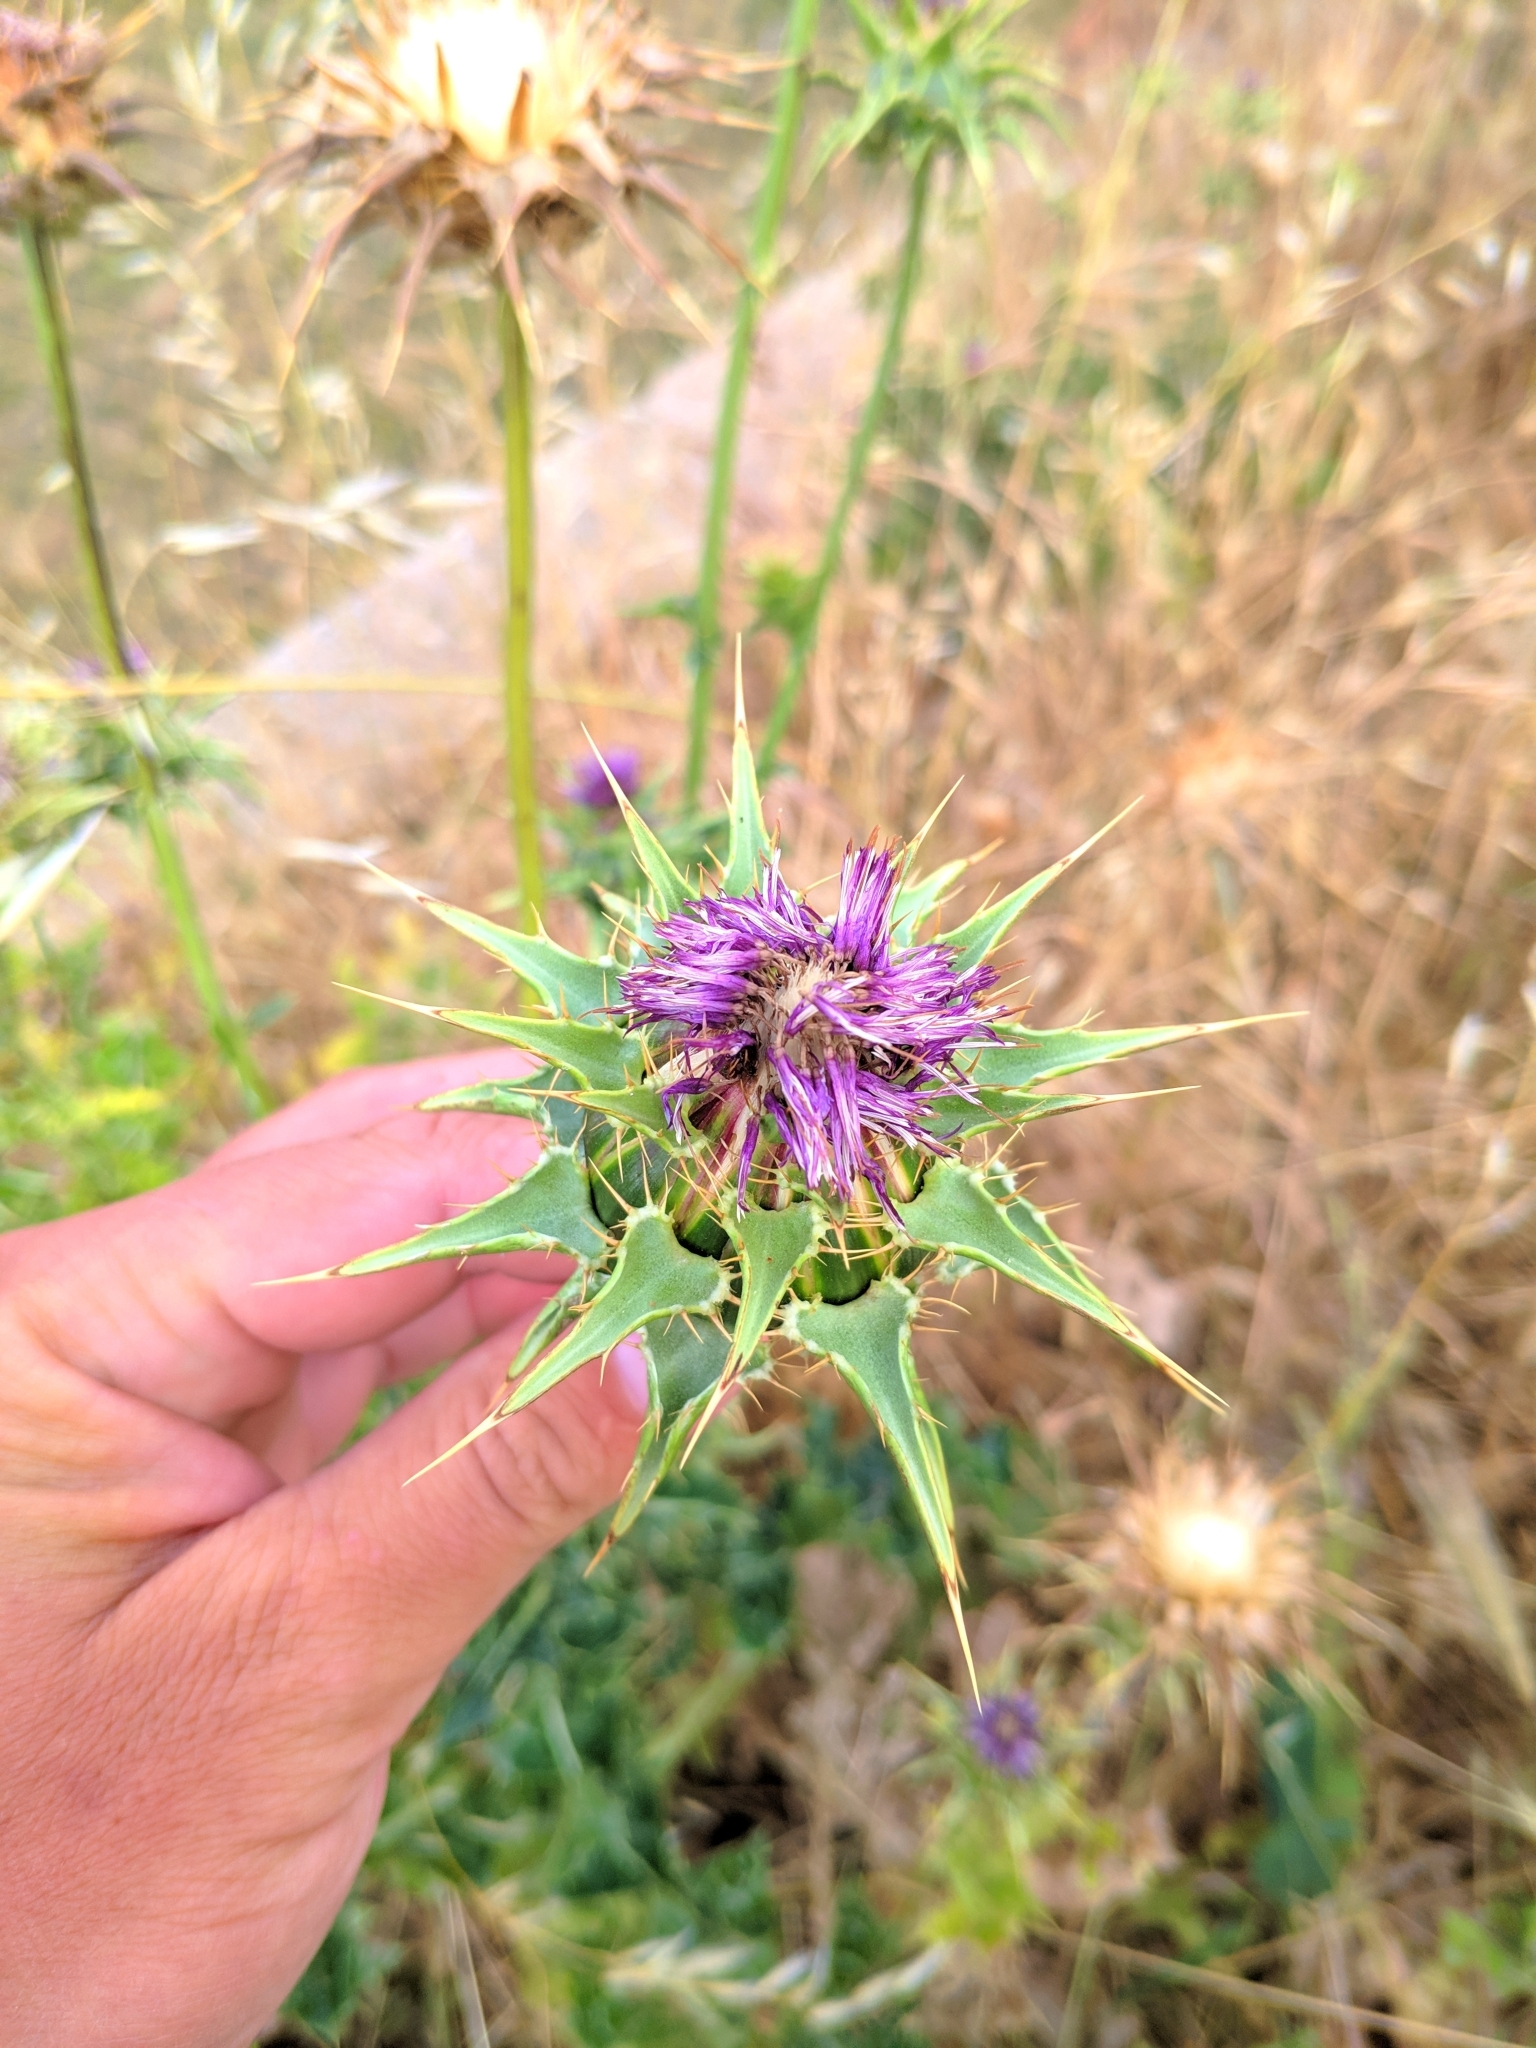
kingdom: Plantae
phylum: Tracheophyta
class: Magnoliopsida
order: Asterales
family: Asteraceae
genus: Silybum
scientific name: Silybum marianum
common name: Milk thistle
